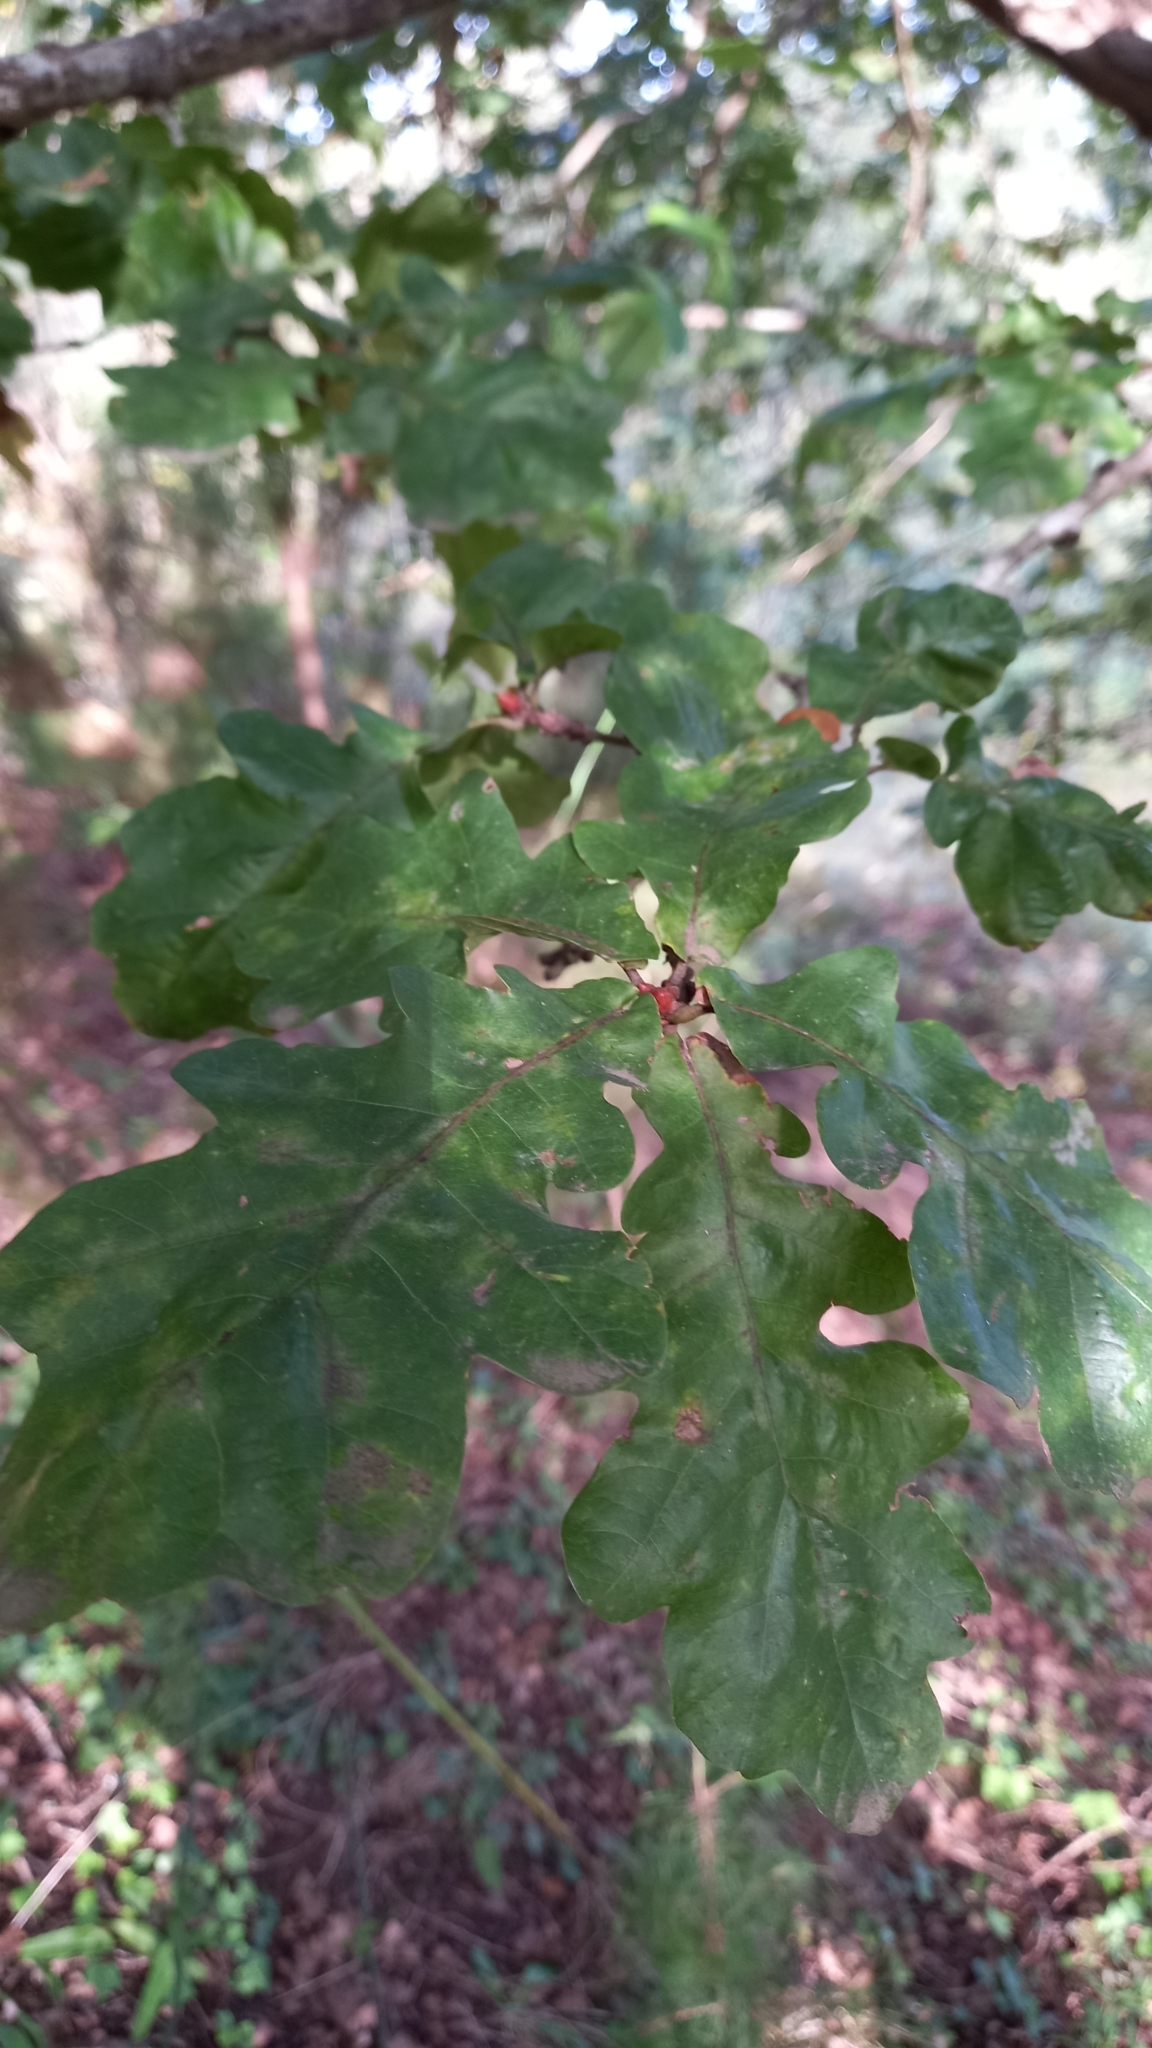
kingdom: Plantae
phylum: Tracheophyta
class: Magnoliopsida
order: Fagales
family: Fagaceae
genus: Quercus
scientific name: Quercus robur
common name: Pedunculate oak
